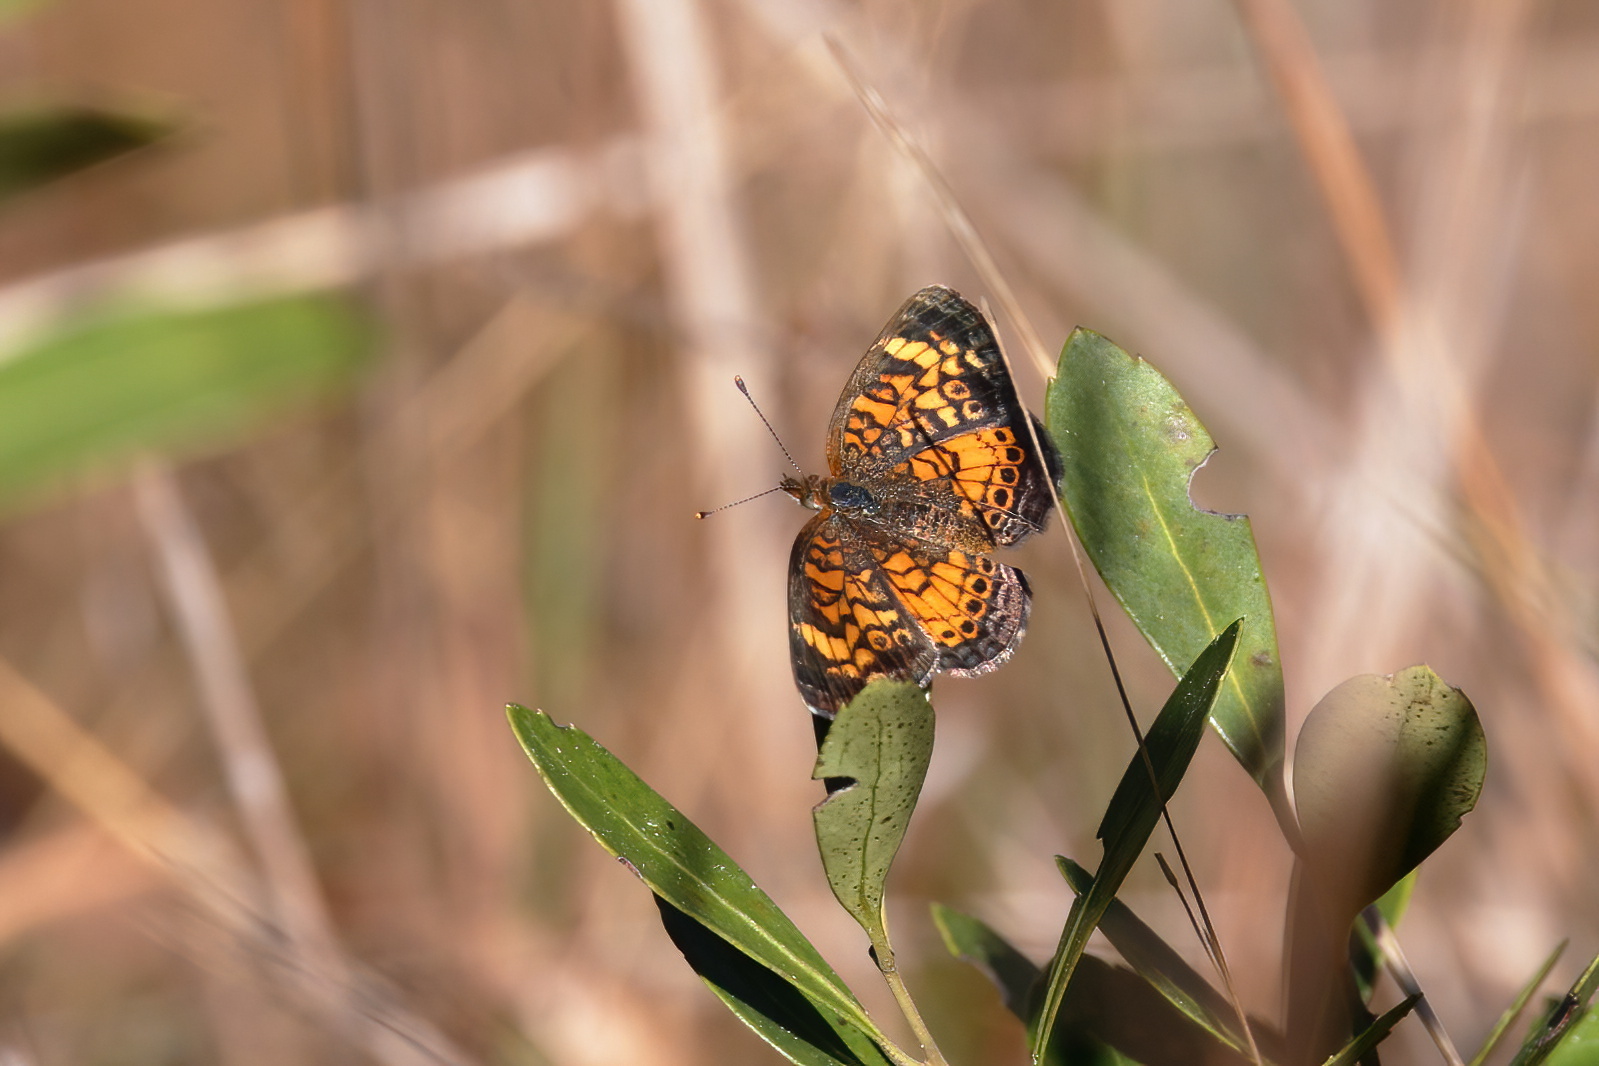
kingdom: Animalia
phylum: Arthropoda
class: Insecta
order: Lepidoptera
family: Nymphalidae
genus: Phyciodes
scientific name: Phyciodes tharos
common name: Pearl crescent
